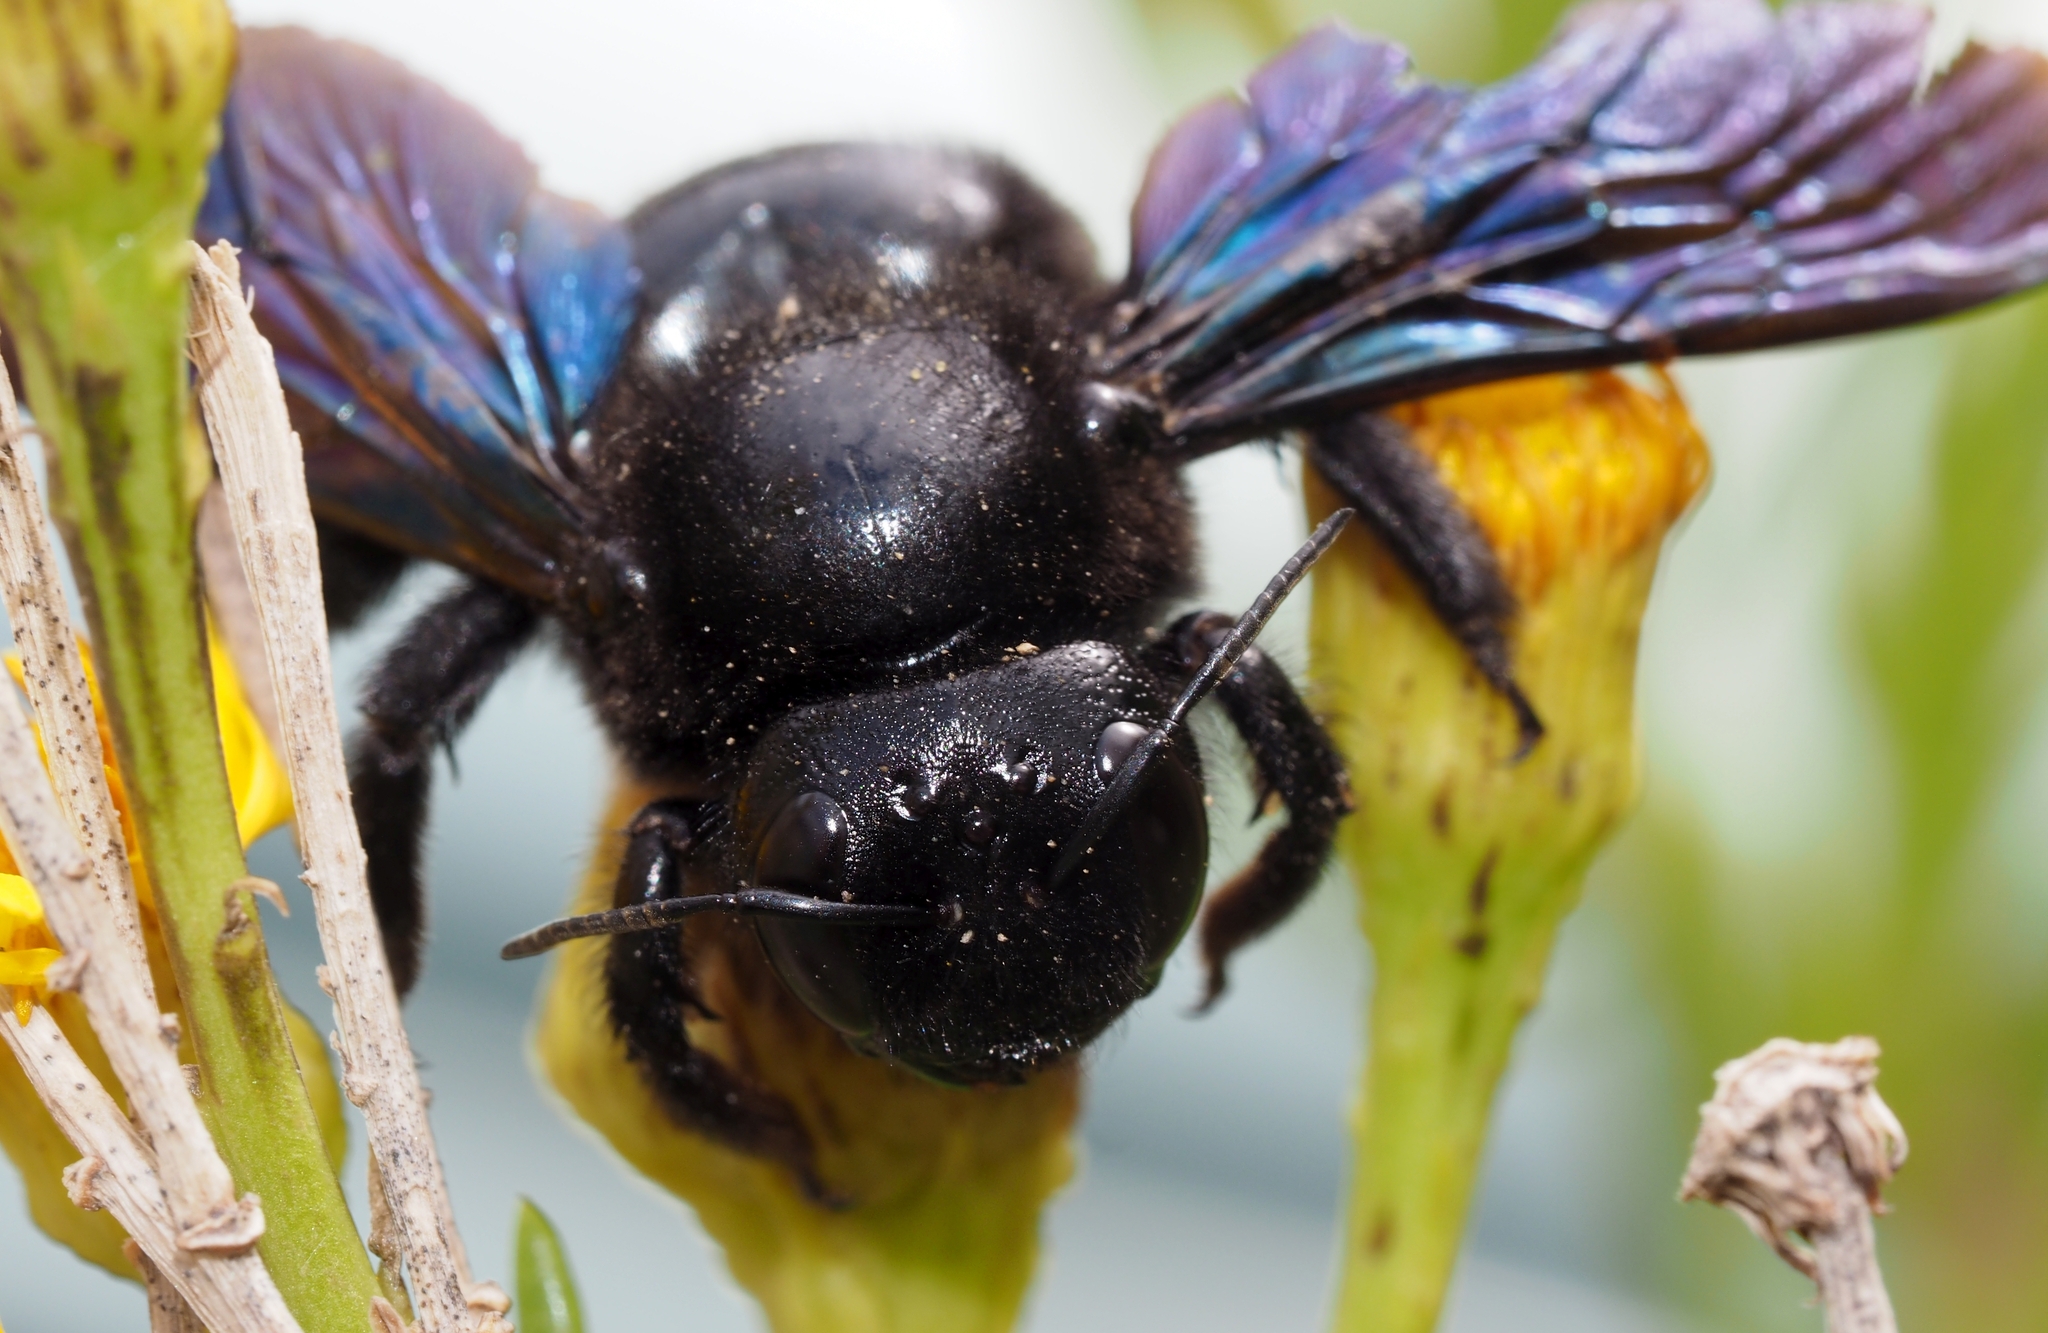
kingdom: Animalia
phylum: Arthropoda
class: Insecta
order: Hymenoptera
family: Apidae
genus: Xylocopa
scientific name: Xylocopa violacea
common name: Violet carpenter bee
